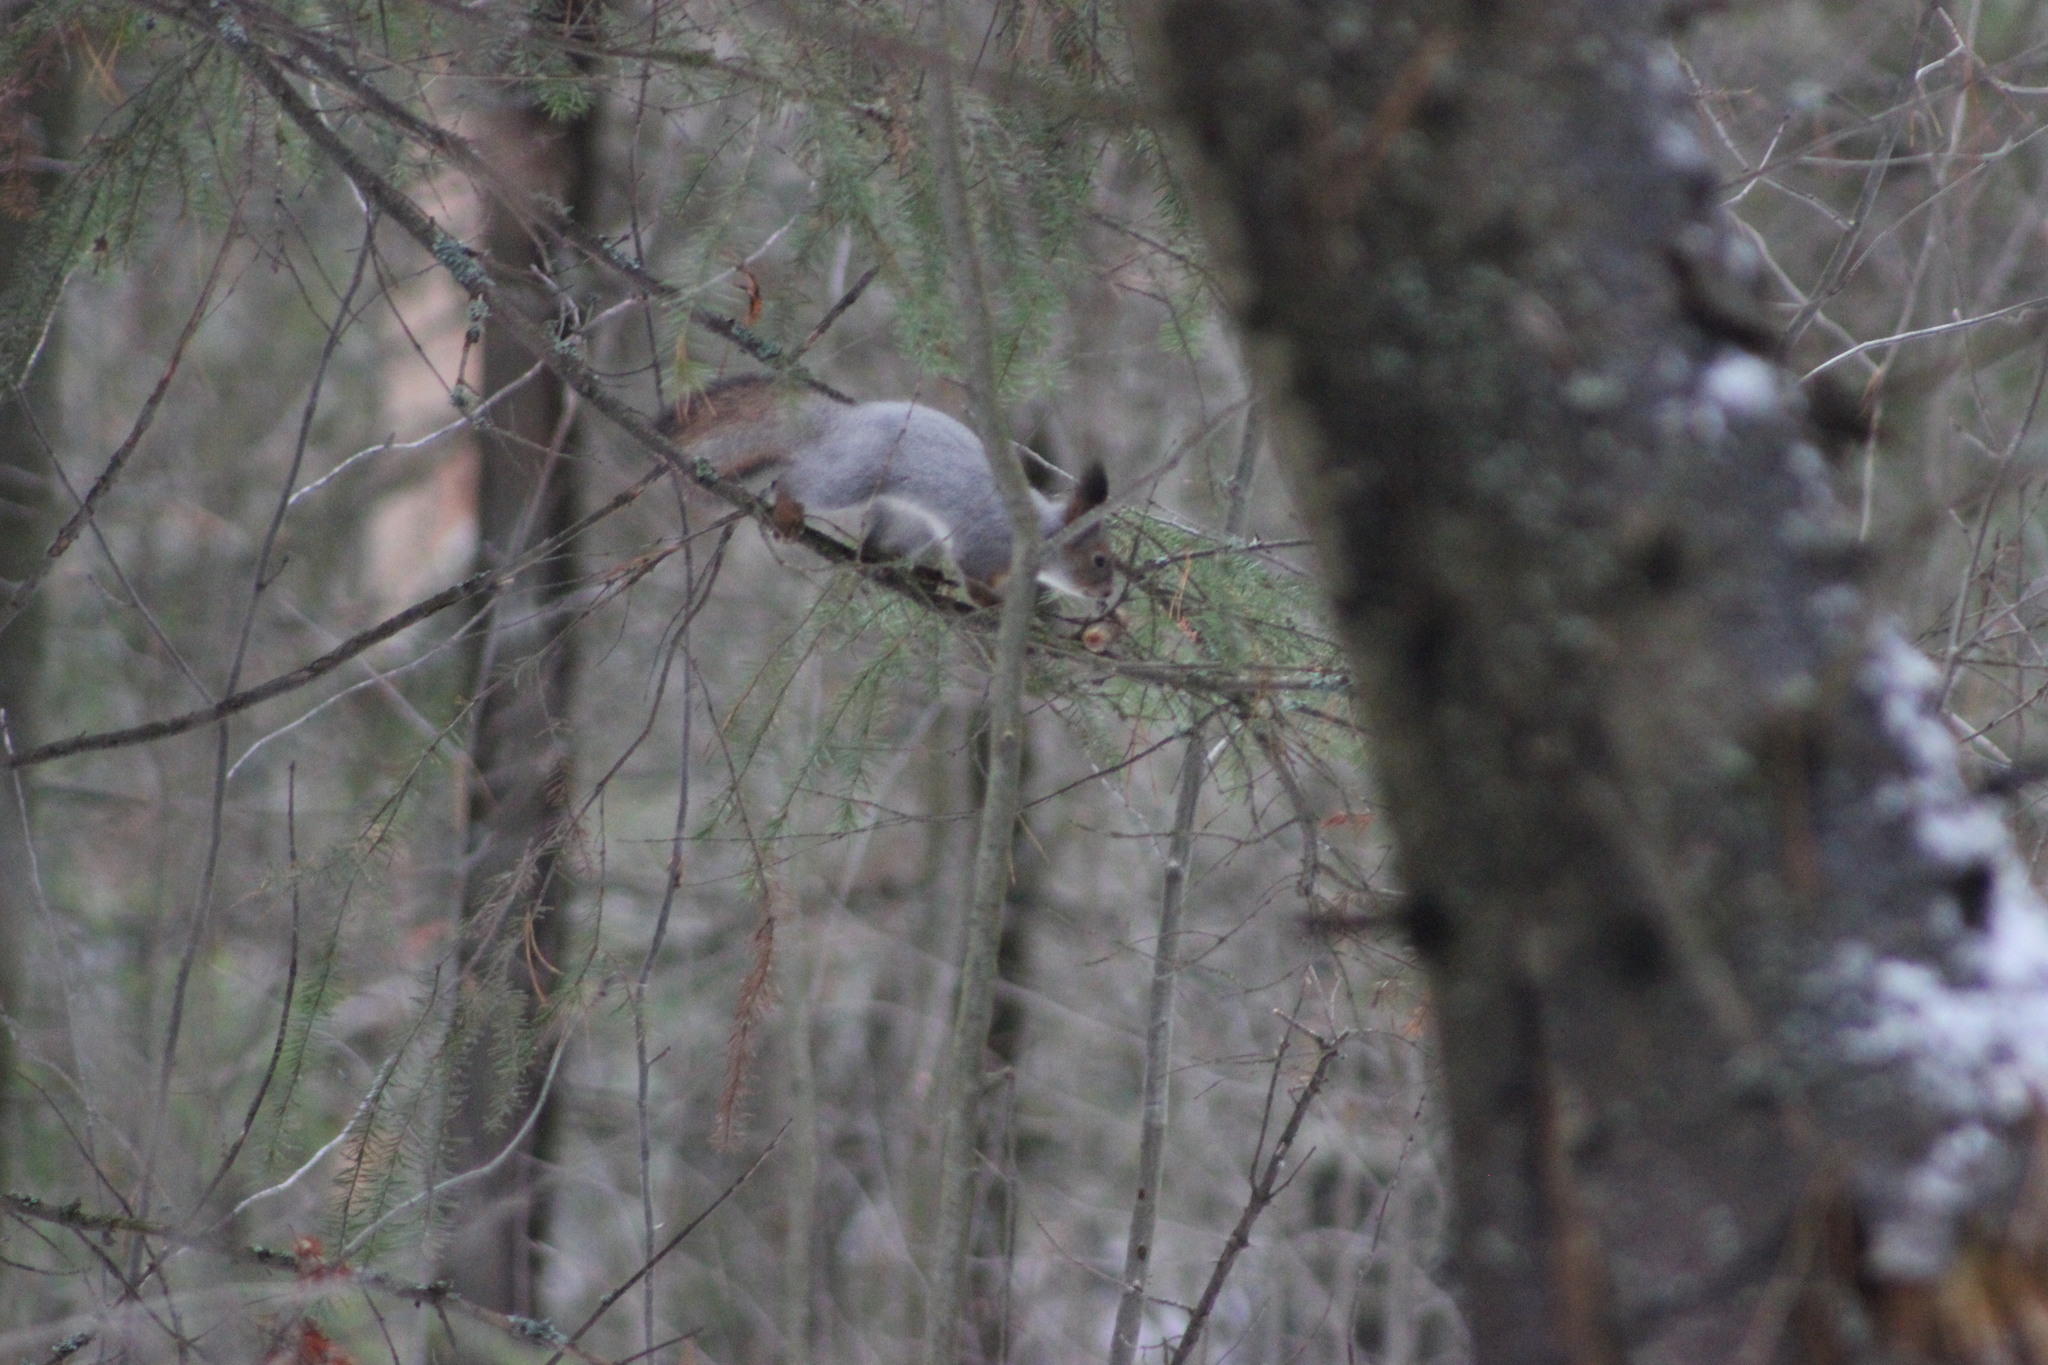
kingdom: Animalia
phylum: Chordata
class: Mammalia
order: Rodentia
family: Sciuridae
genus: Sciurus
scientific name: Sciurus vulgaris
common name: Eurasian red squirrel
